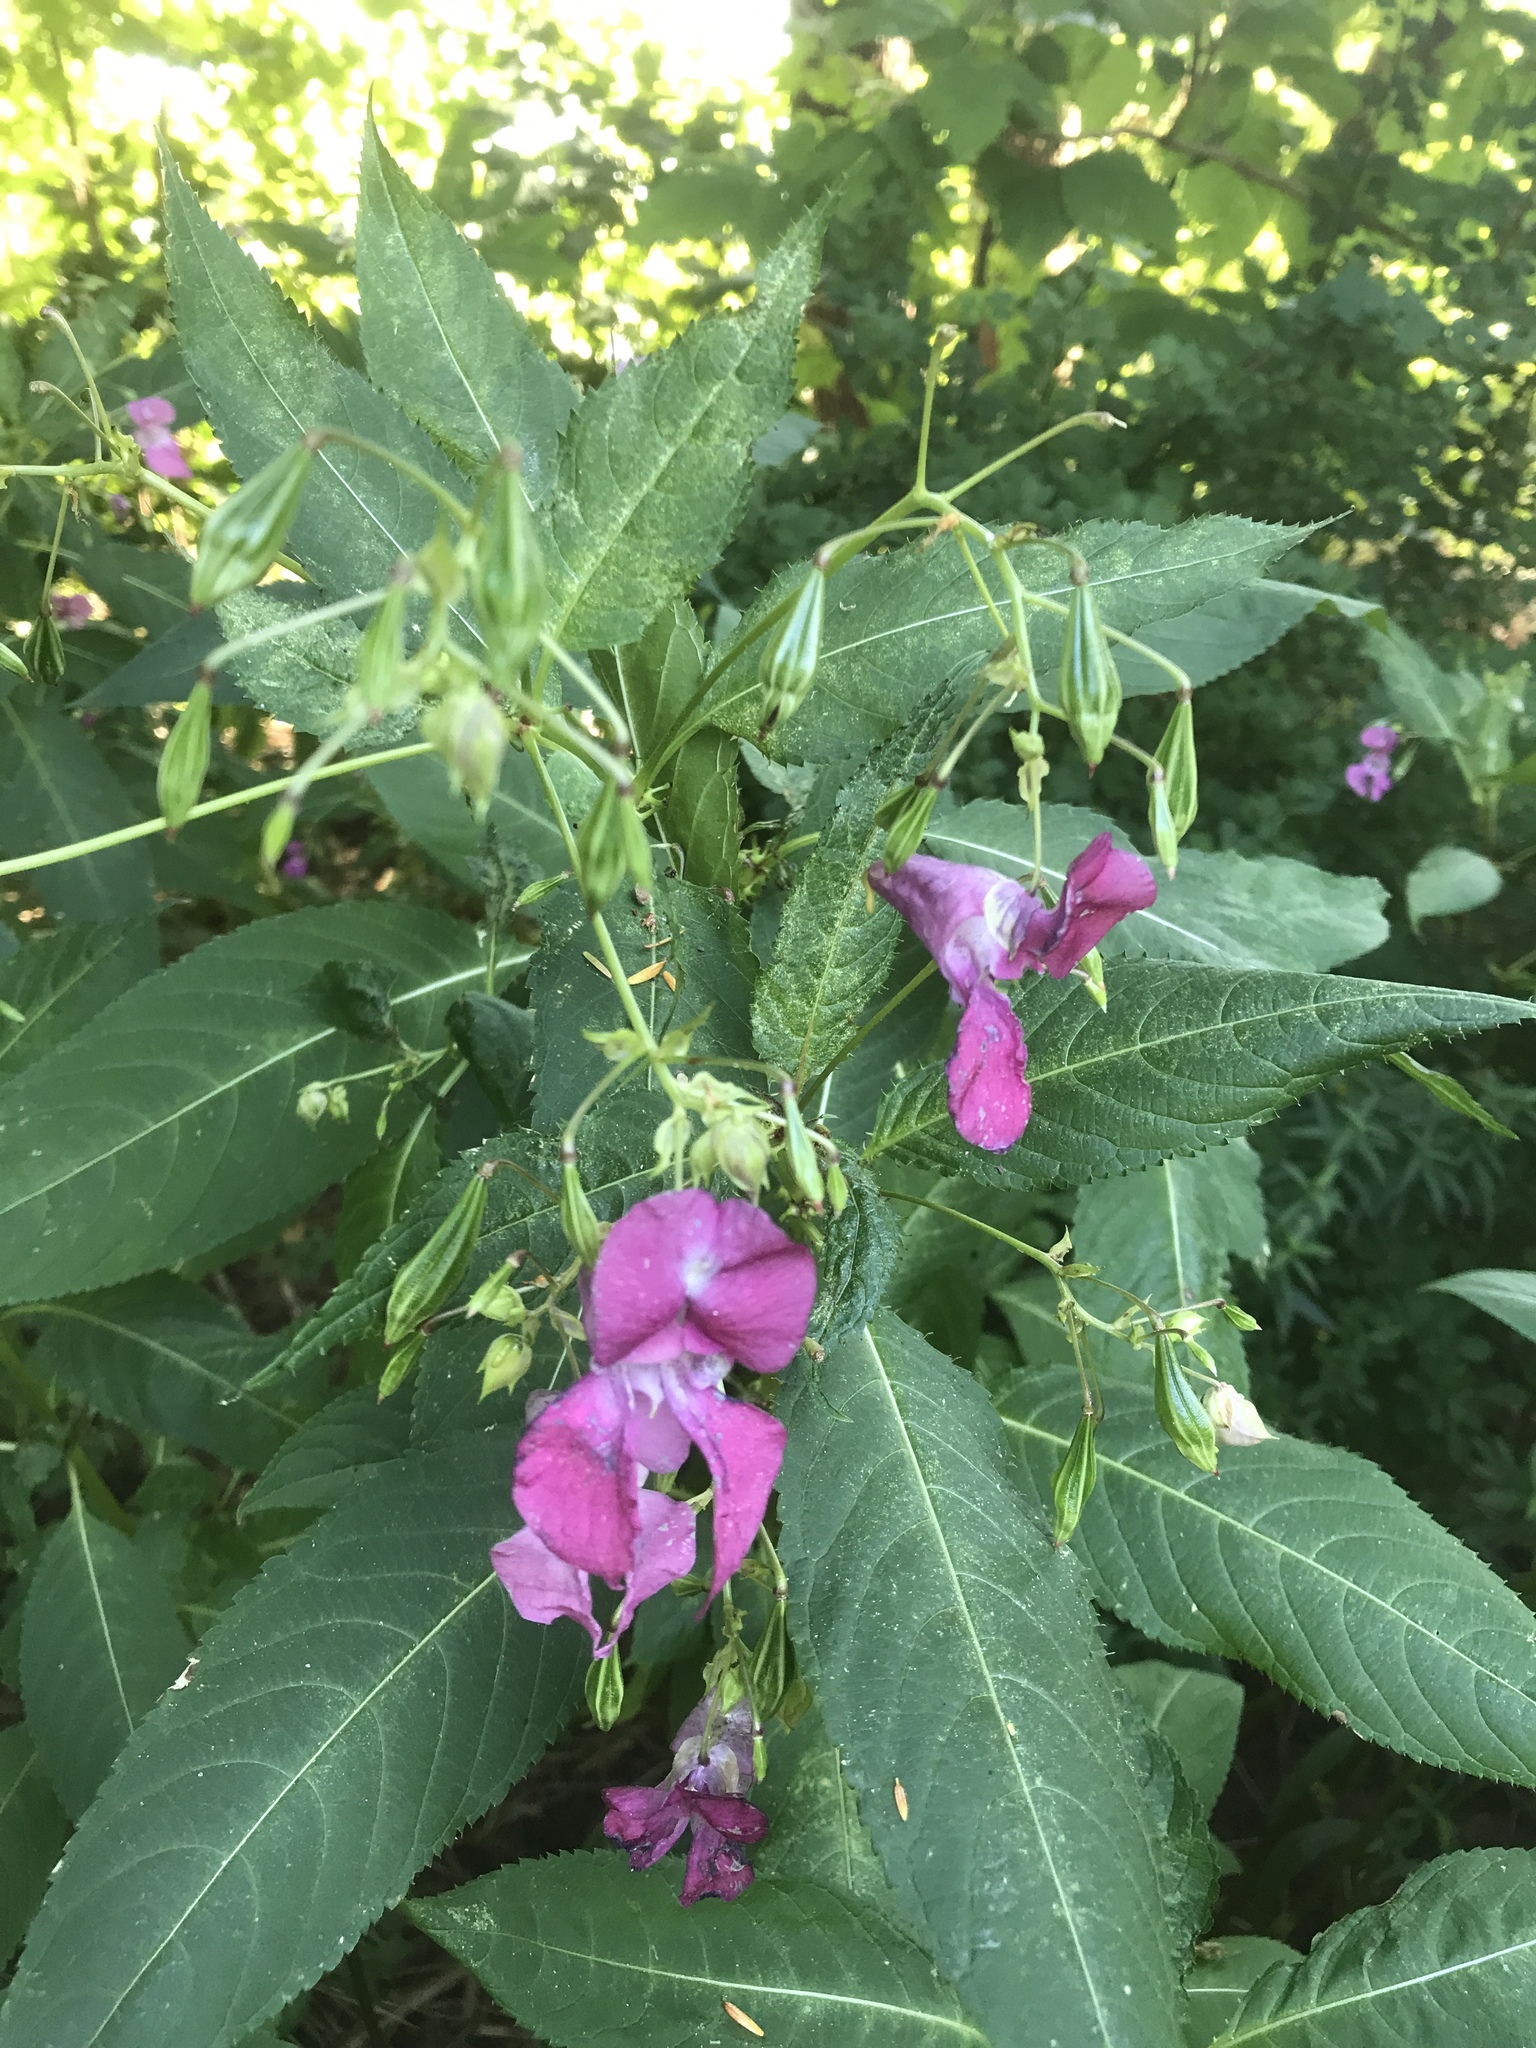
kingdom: Plantae
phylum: Tracheophyta
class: Magnoliopsida
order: Ericales
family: Balsaminaceae
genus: Impatiens
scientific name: Impatiens glandulifera
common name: Himalayan balsam
